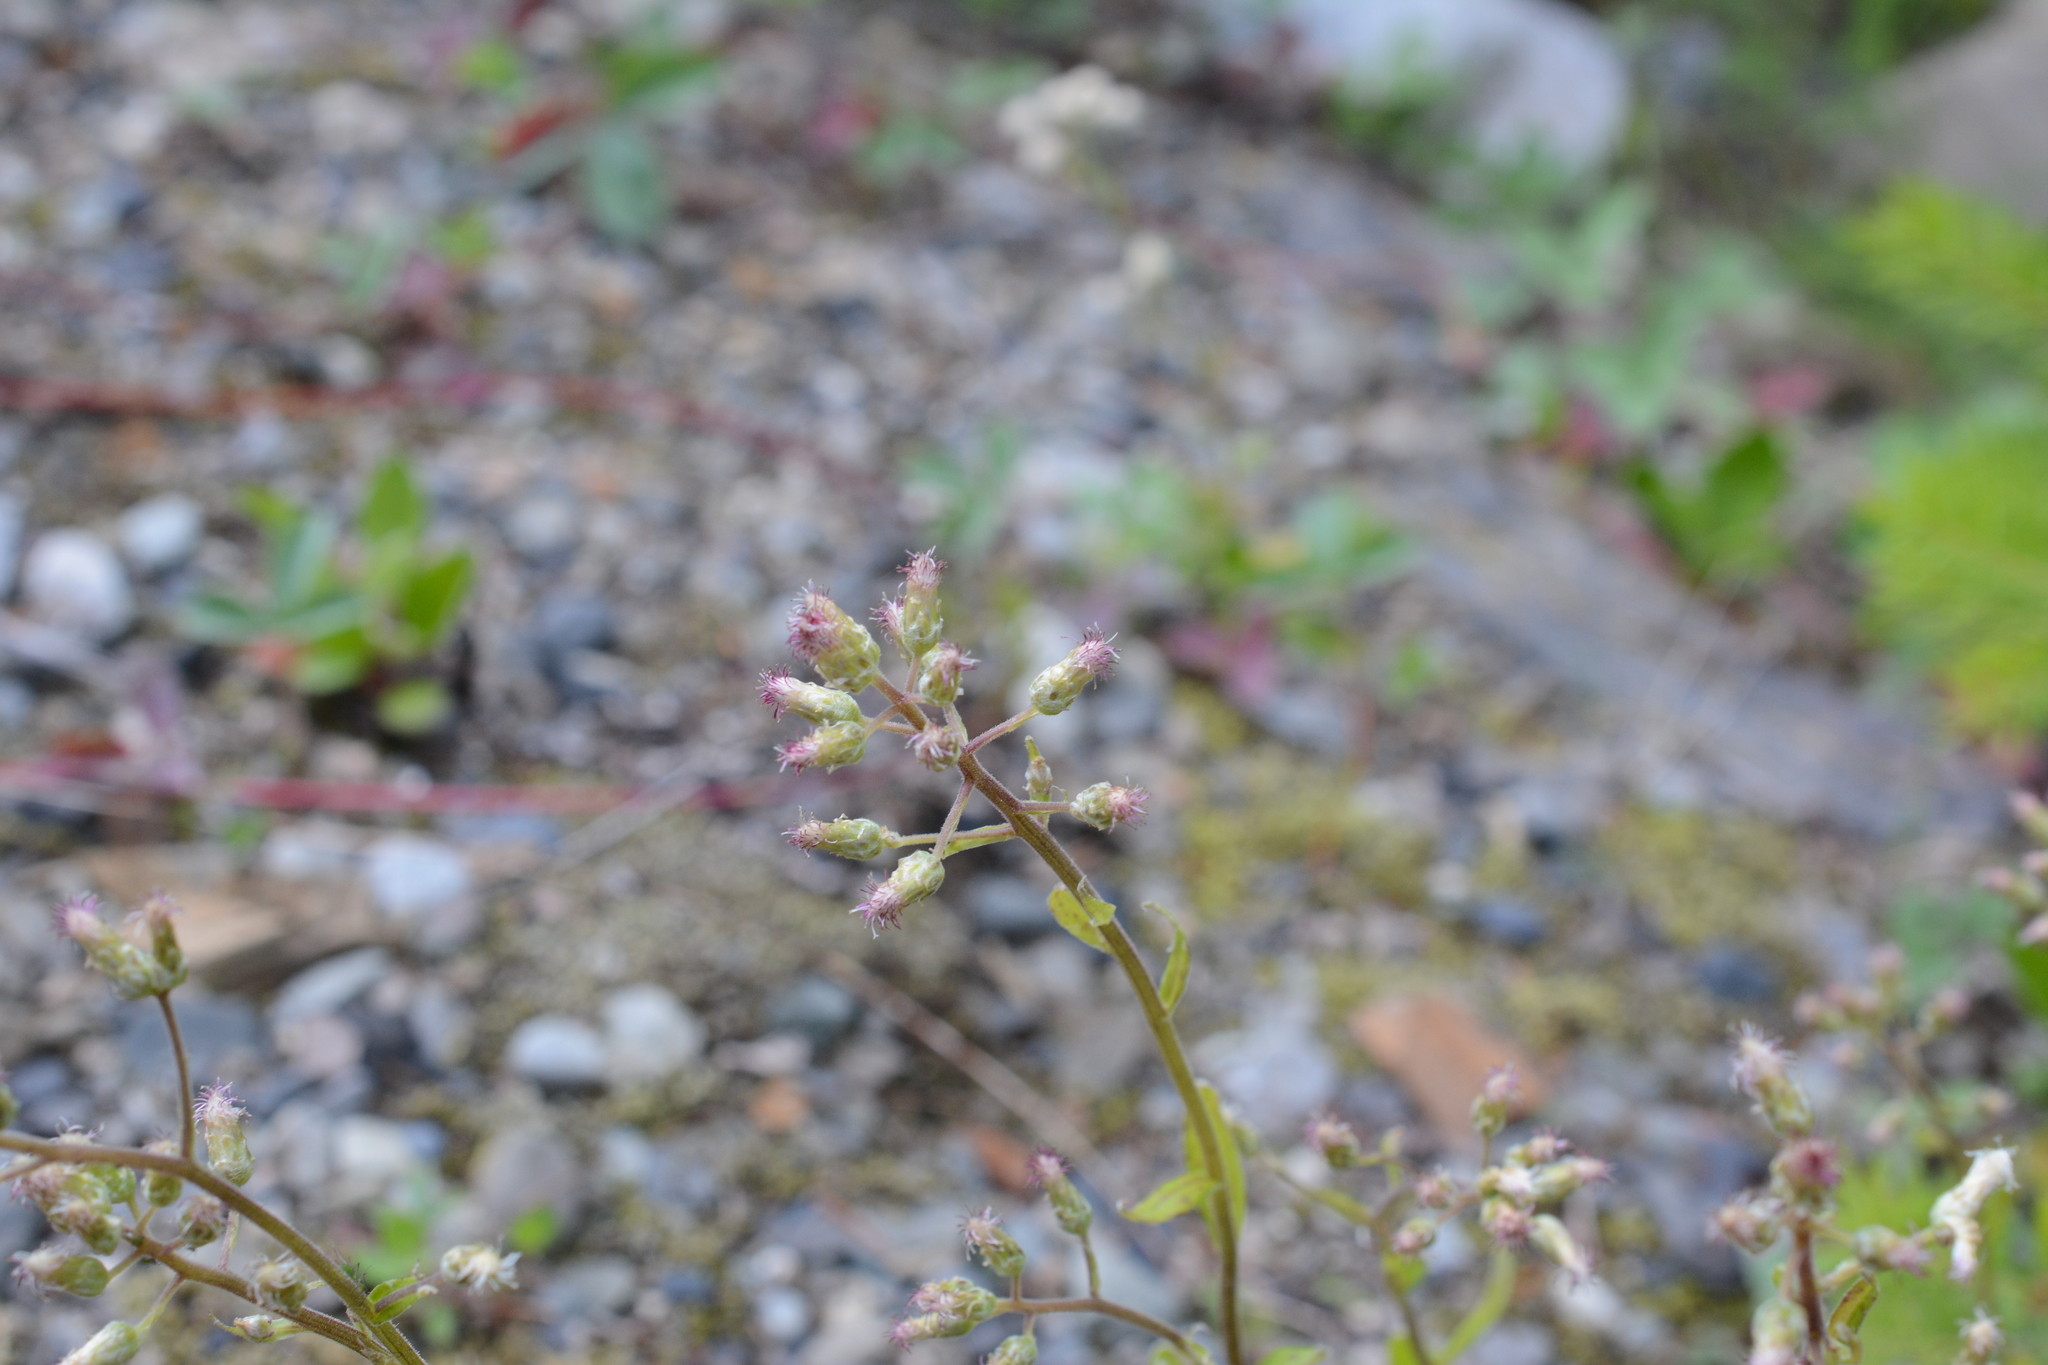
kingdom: Plantae
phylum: Tracheophyta
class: Magnoliopsida
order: Asterales
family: Asteraceae
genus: Antennaria
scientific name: Antennaria racemosa
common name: Racemose pussytoes
